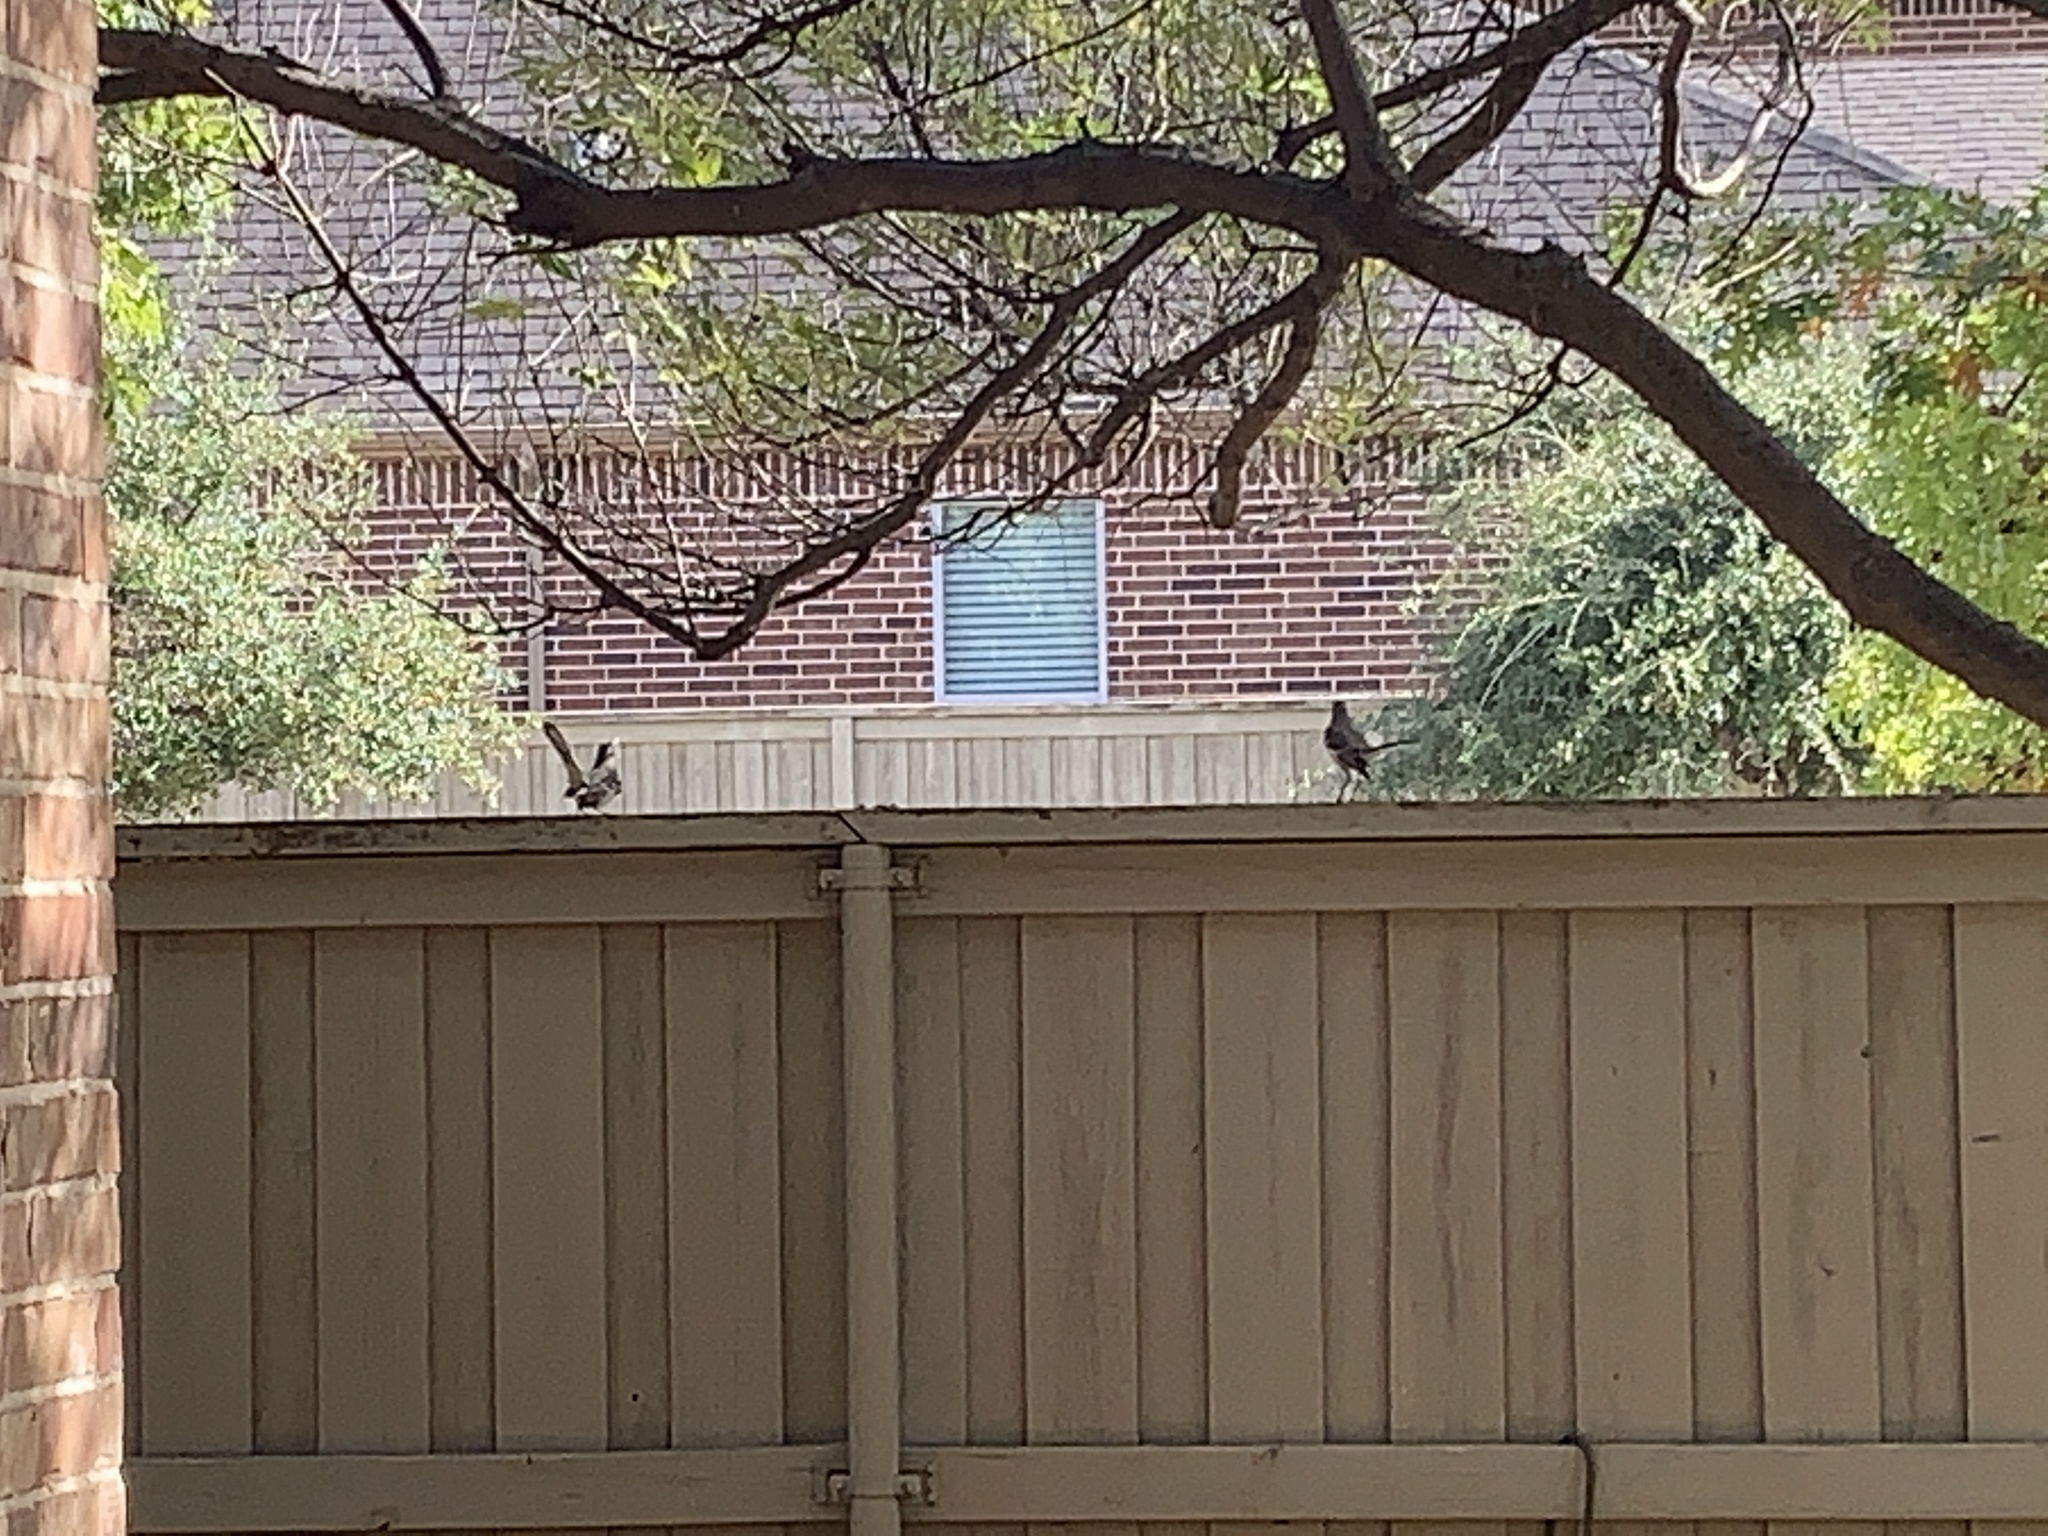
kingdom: Animalia
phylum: Chordata
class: Aves
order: Passeriformes
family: Mimidae
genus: Mimus
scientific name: Mimus polyglottos
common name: Northern mockingbird
